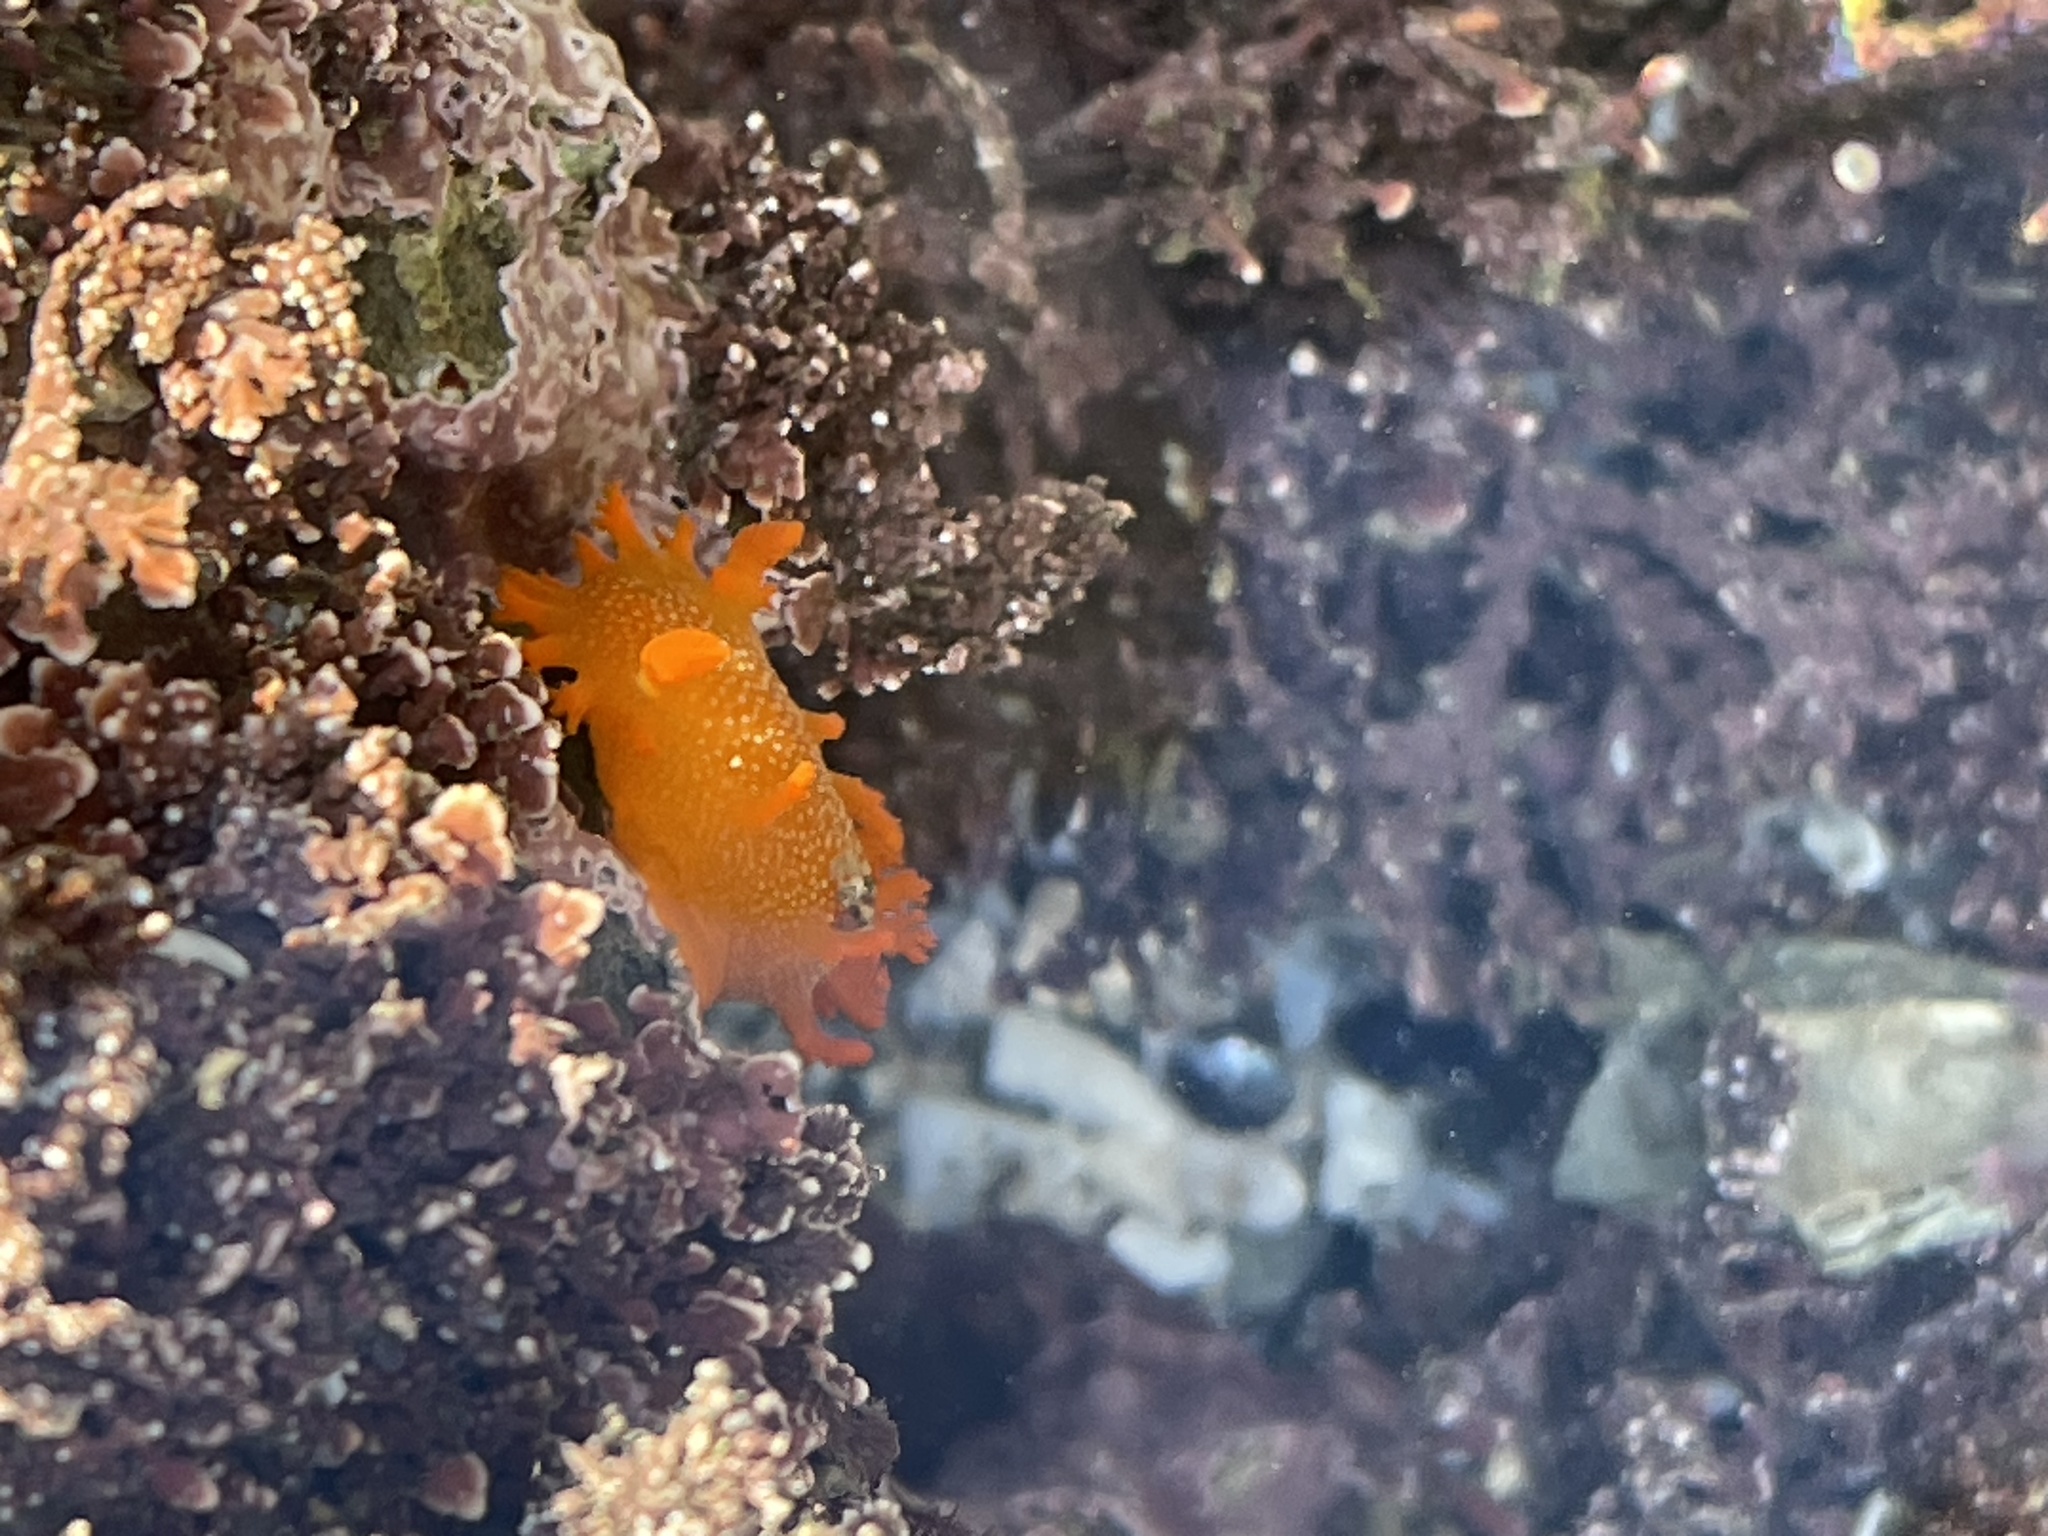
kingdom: Animalia
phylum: Mollusca
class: Gastropoda
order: Nudibranchia
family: Polyceridae
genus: Triopha
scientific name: Triopha maculata
